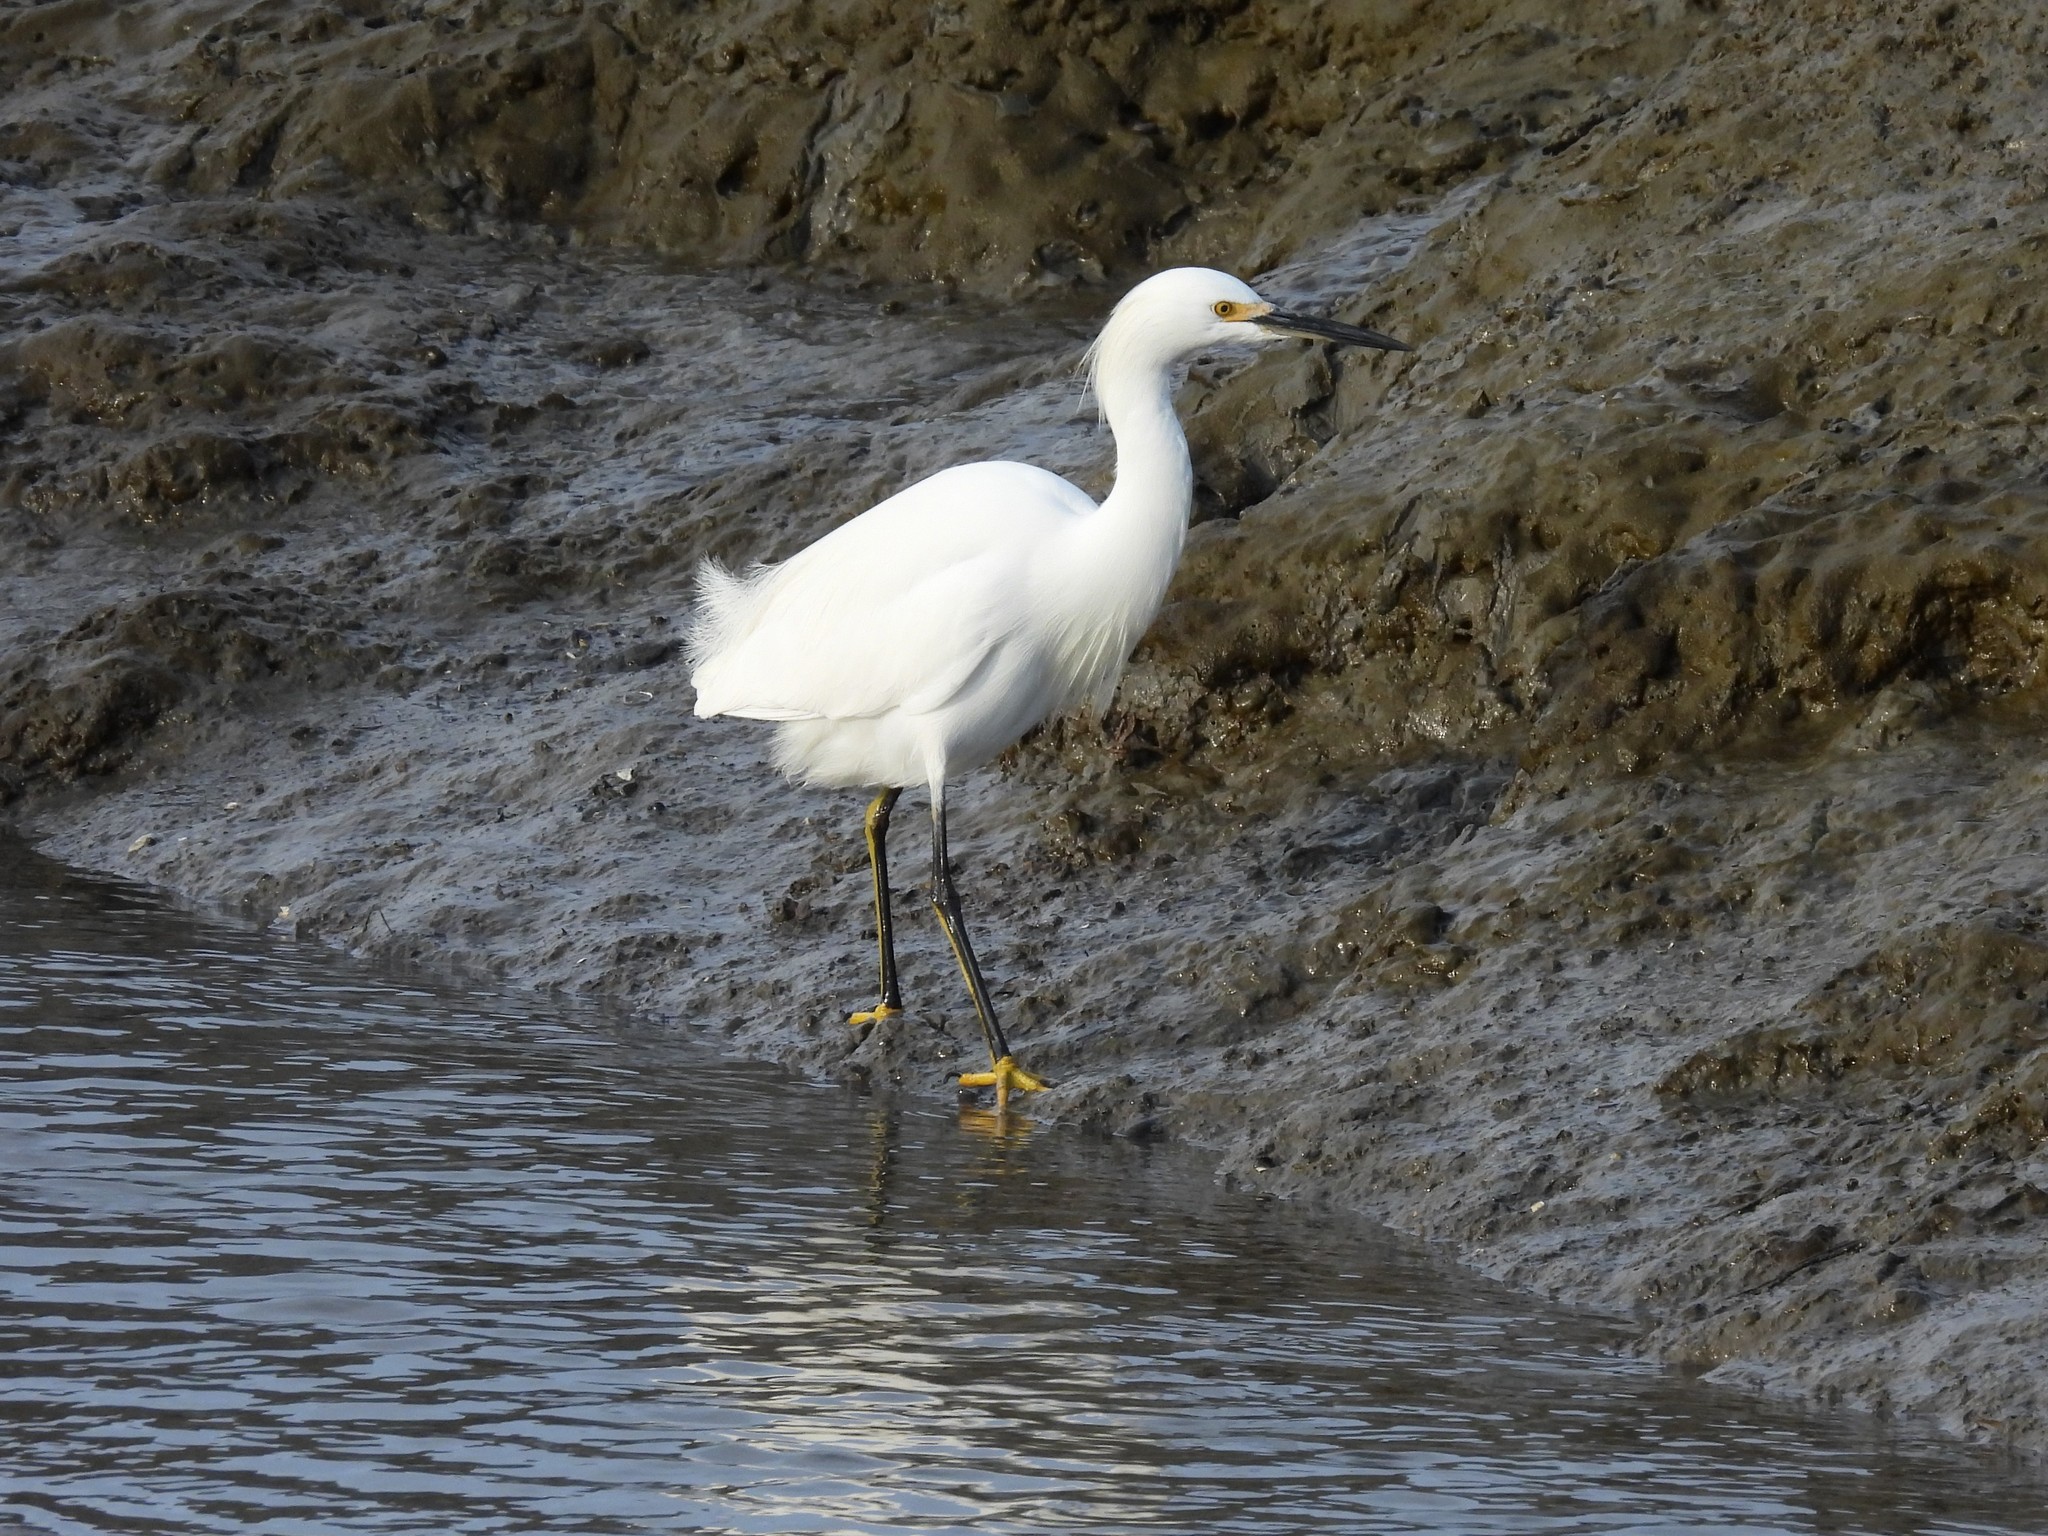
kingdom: Animalia
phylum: Chordata
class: Aves
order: Pelecaniformes
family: Ardeidae
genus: Egretta
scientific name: Egretta thula
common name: Snowy egret
